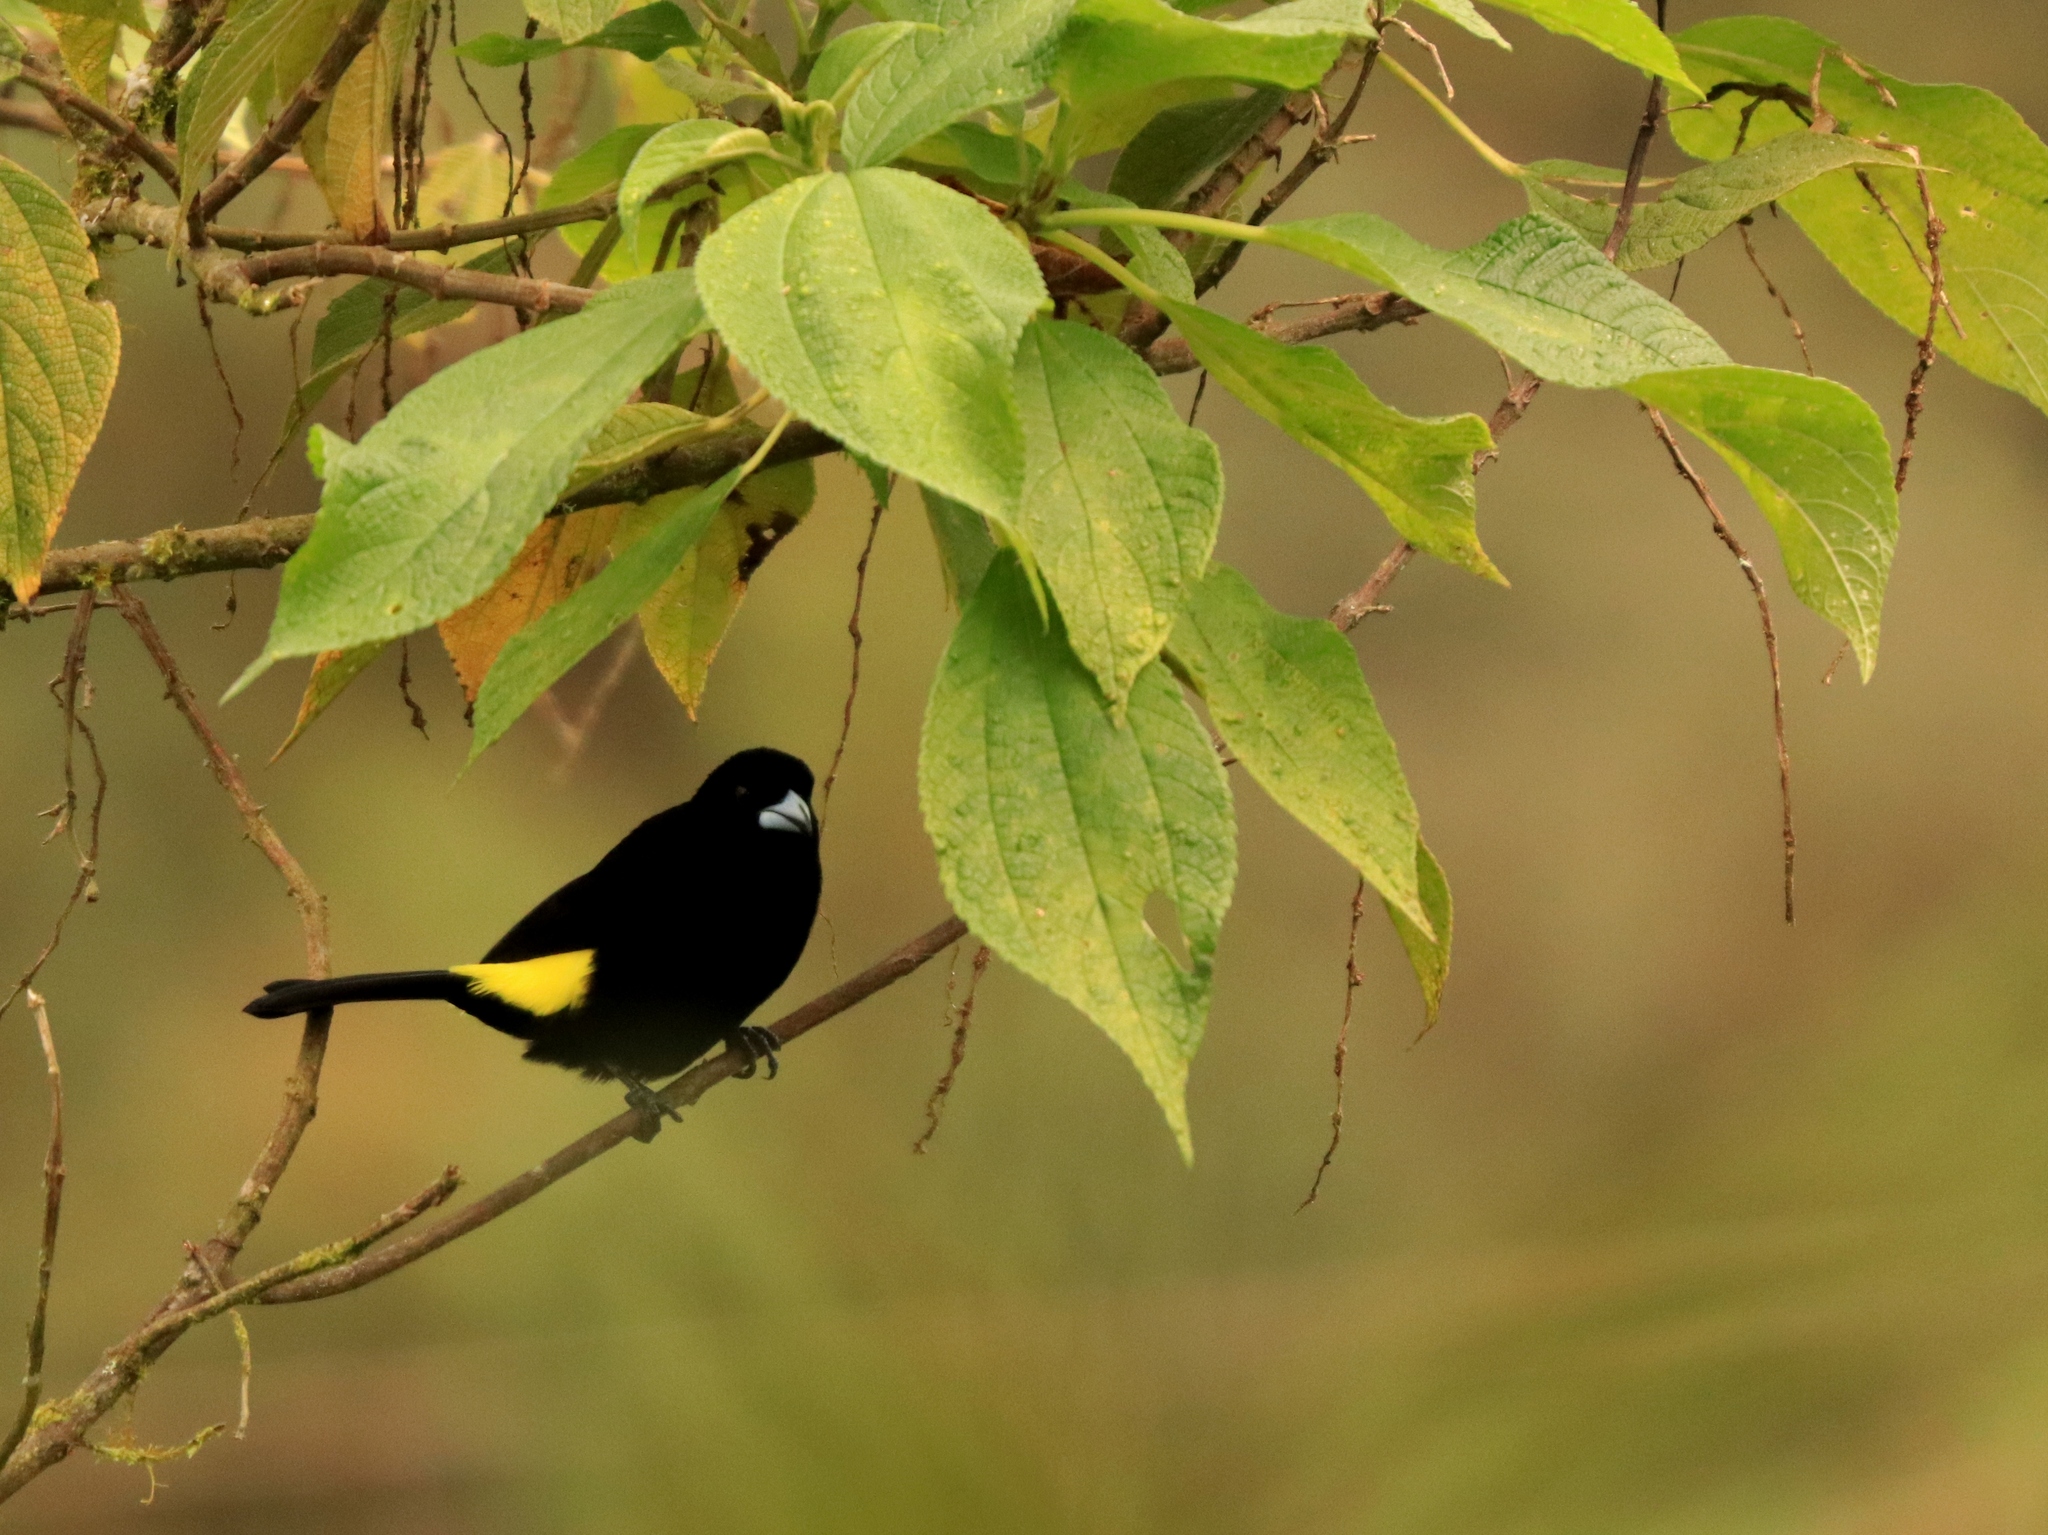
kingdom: Animalia
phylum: Chordata
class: Aves
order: Passeriformes
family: Thraupidae
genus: Ramphocelus
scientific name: Ramphocelus icteronotus
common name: Lemon-rumped tanager
